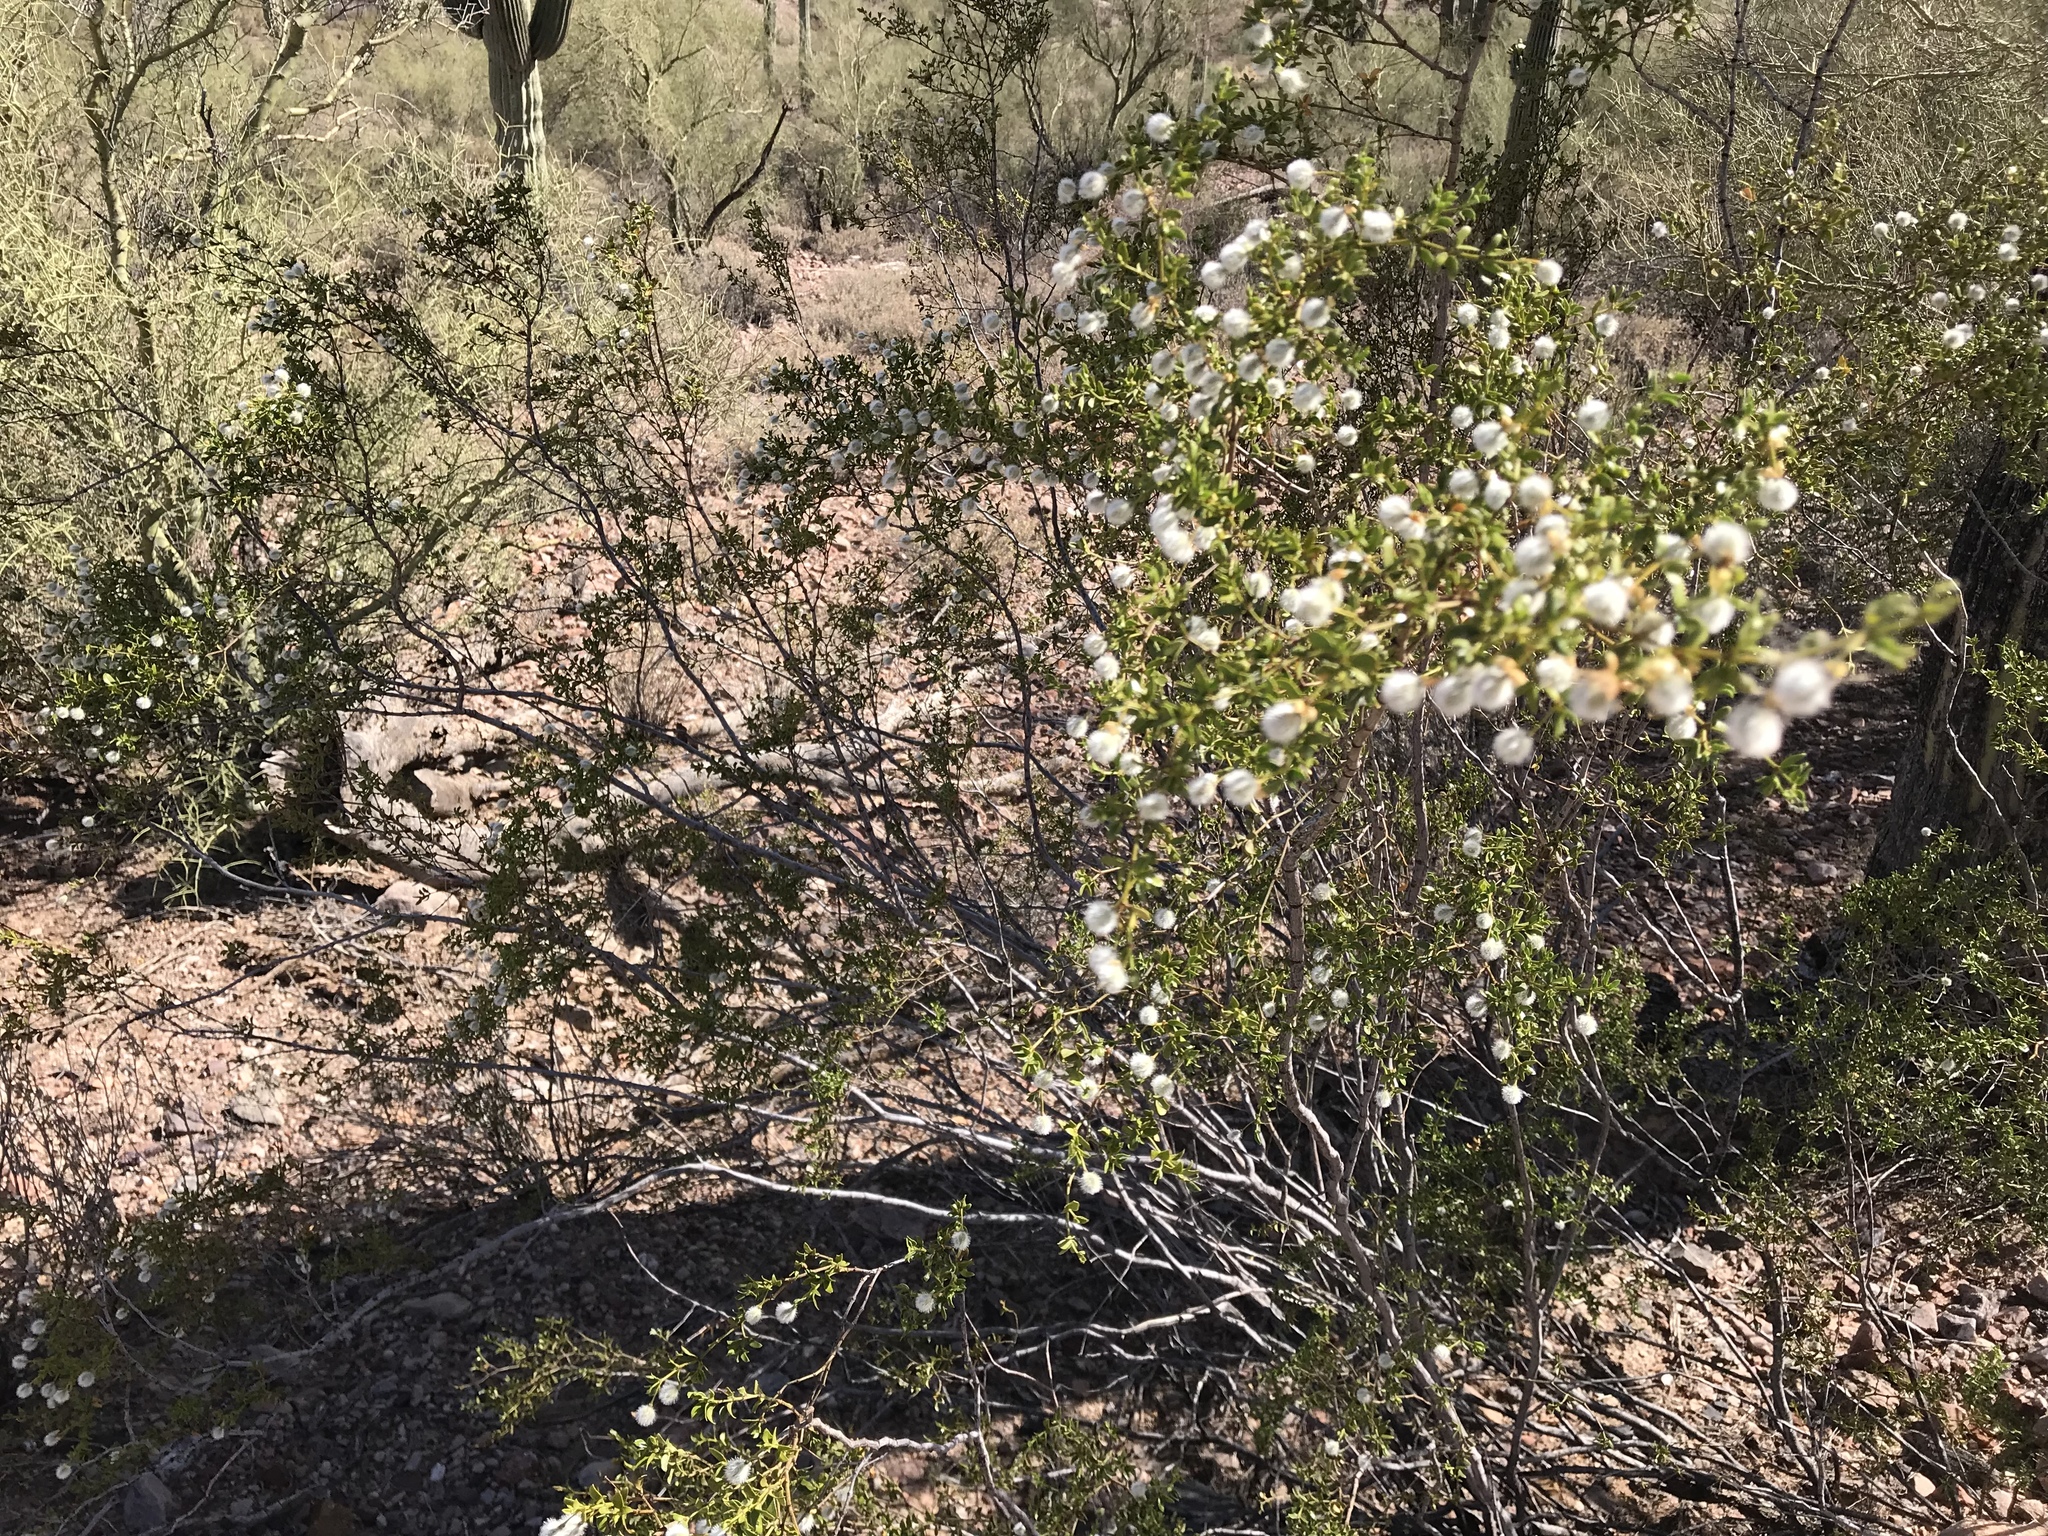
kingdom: Plantae
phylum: Tracheophyta
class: Magnoliopsida
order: Zygophyllales
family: Zygophyllaceae
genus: Larrea
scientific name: Larrea tridentata
